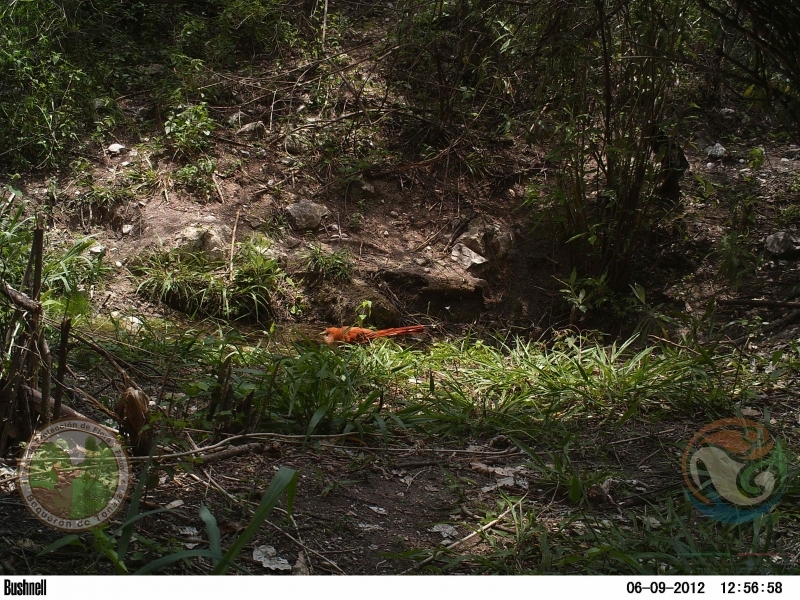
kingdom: Animalia
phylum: Chordata
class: Aves
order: Cuculiformes
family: Cuculidae
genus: Piaya
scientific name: Piaya cayana
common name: Squirrel cuckoo
